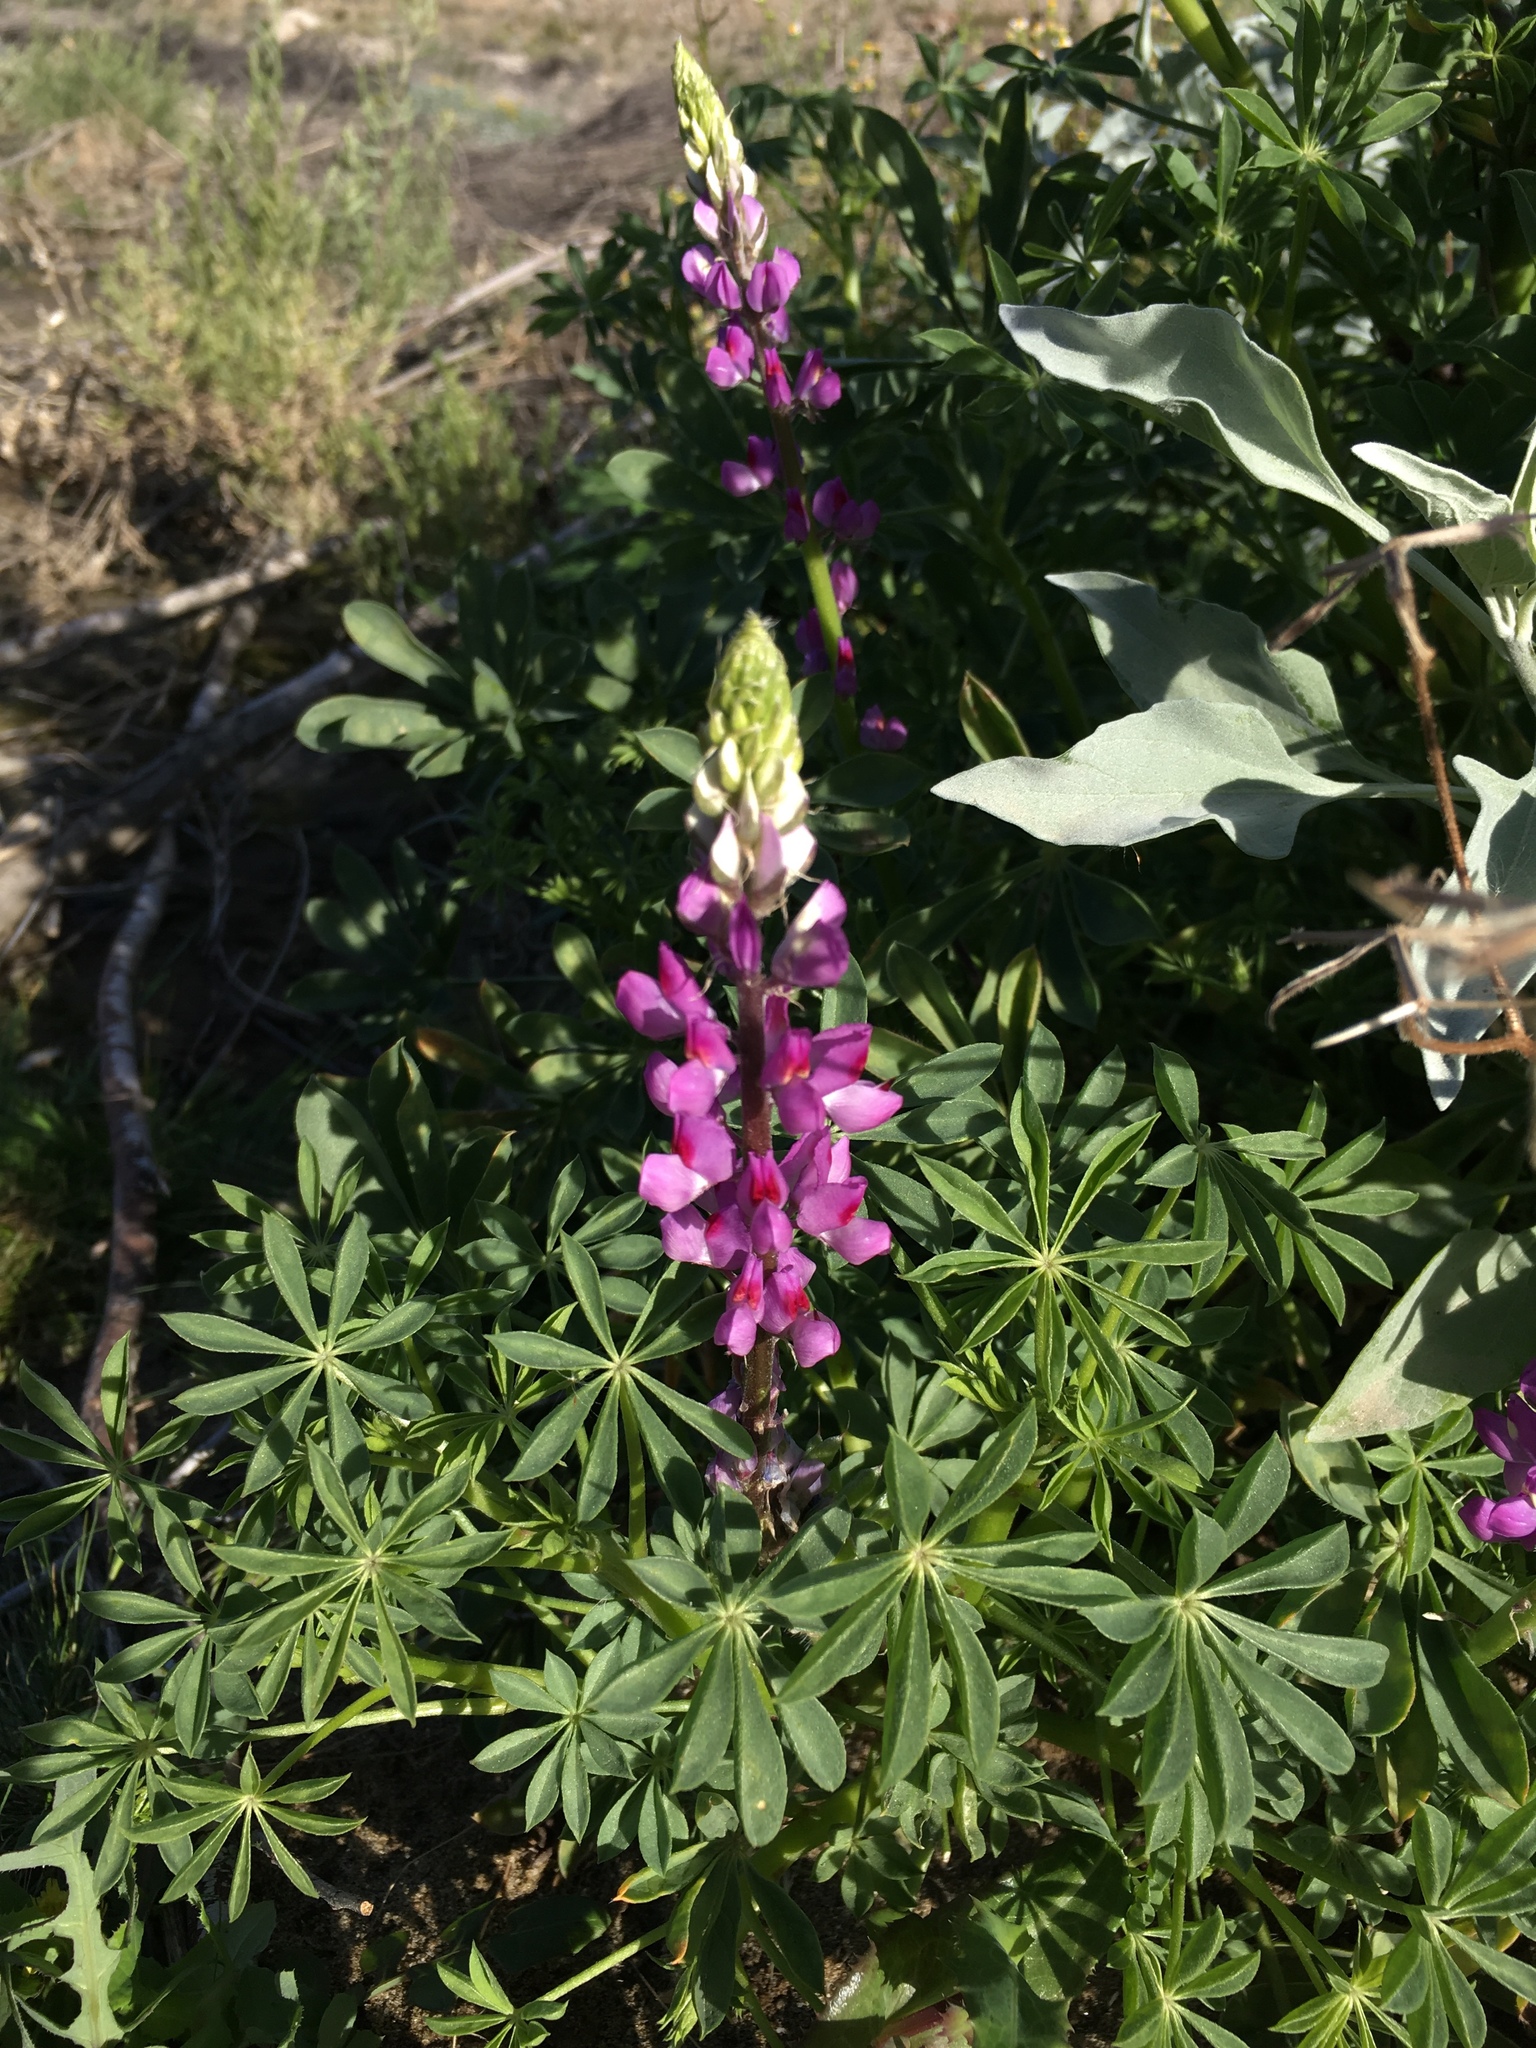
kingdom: Plantae
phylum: Tracheophyta
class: Magnoliopsida
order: Fabales
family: Fabaceae
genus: Lupinus
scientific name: Lupinus arizonicus
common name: Arizona lupine
